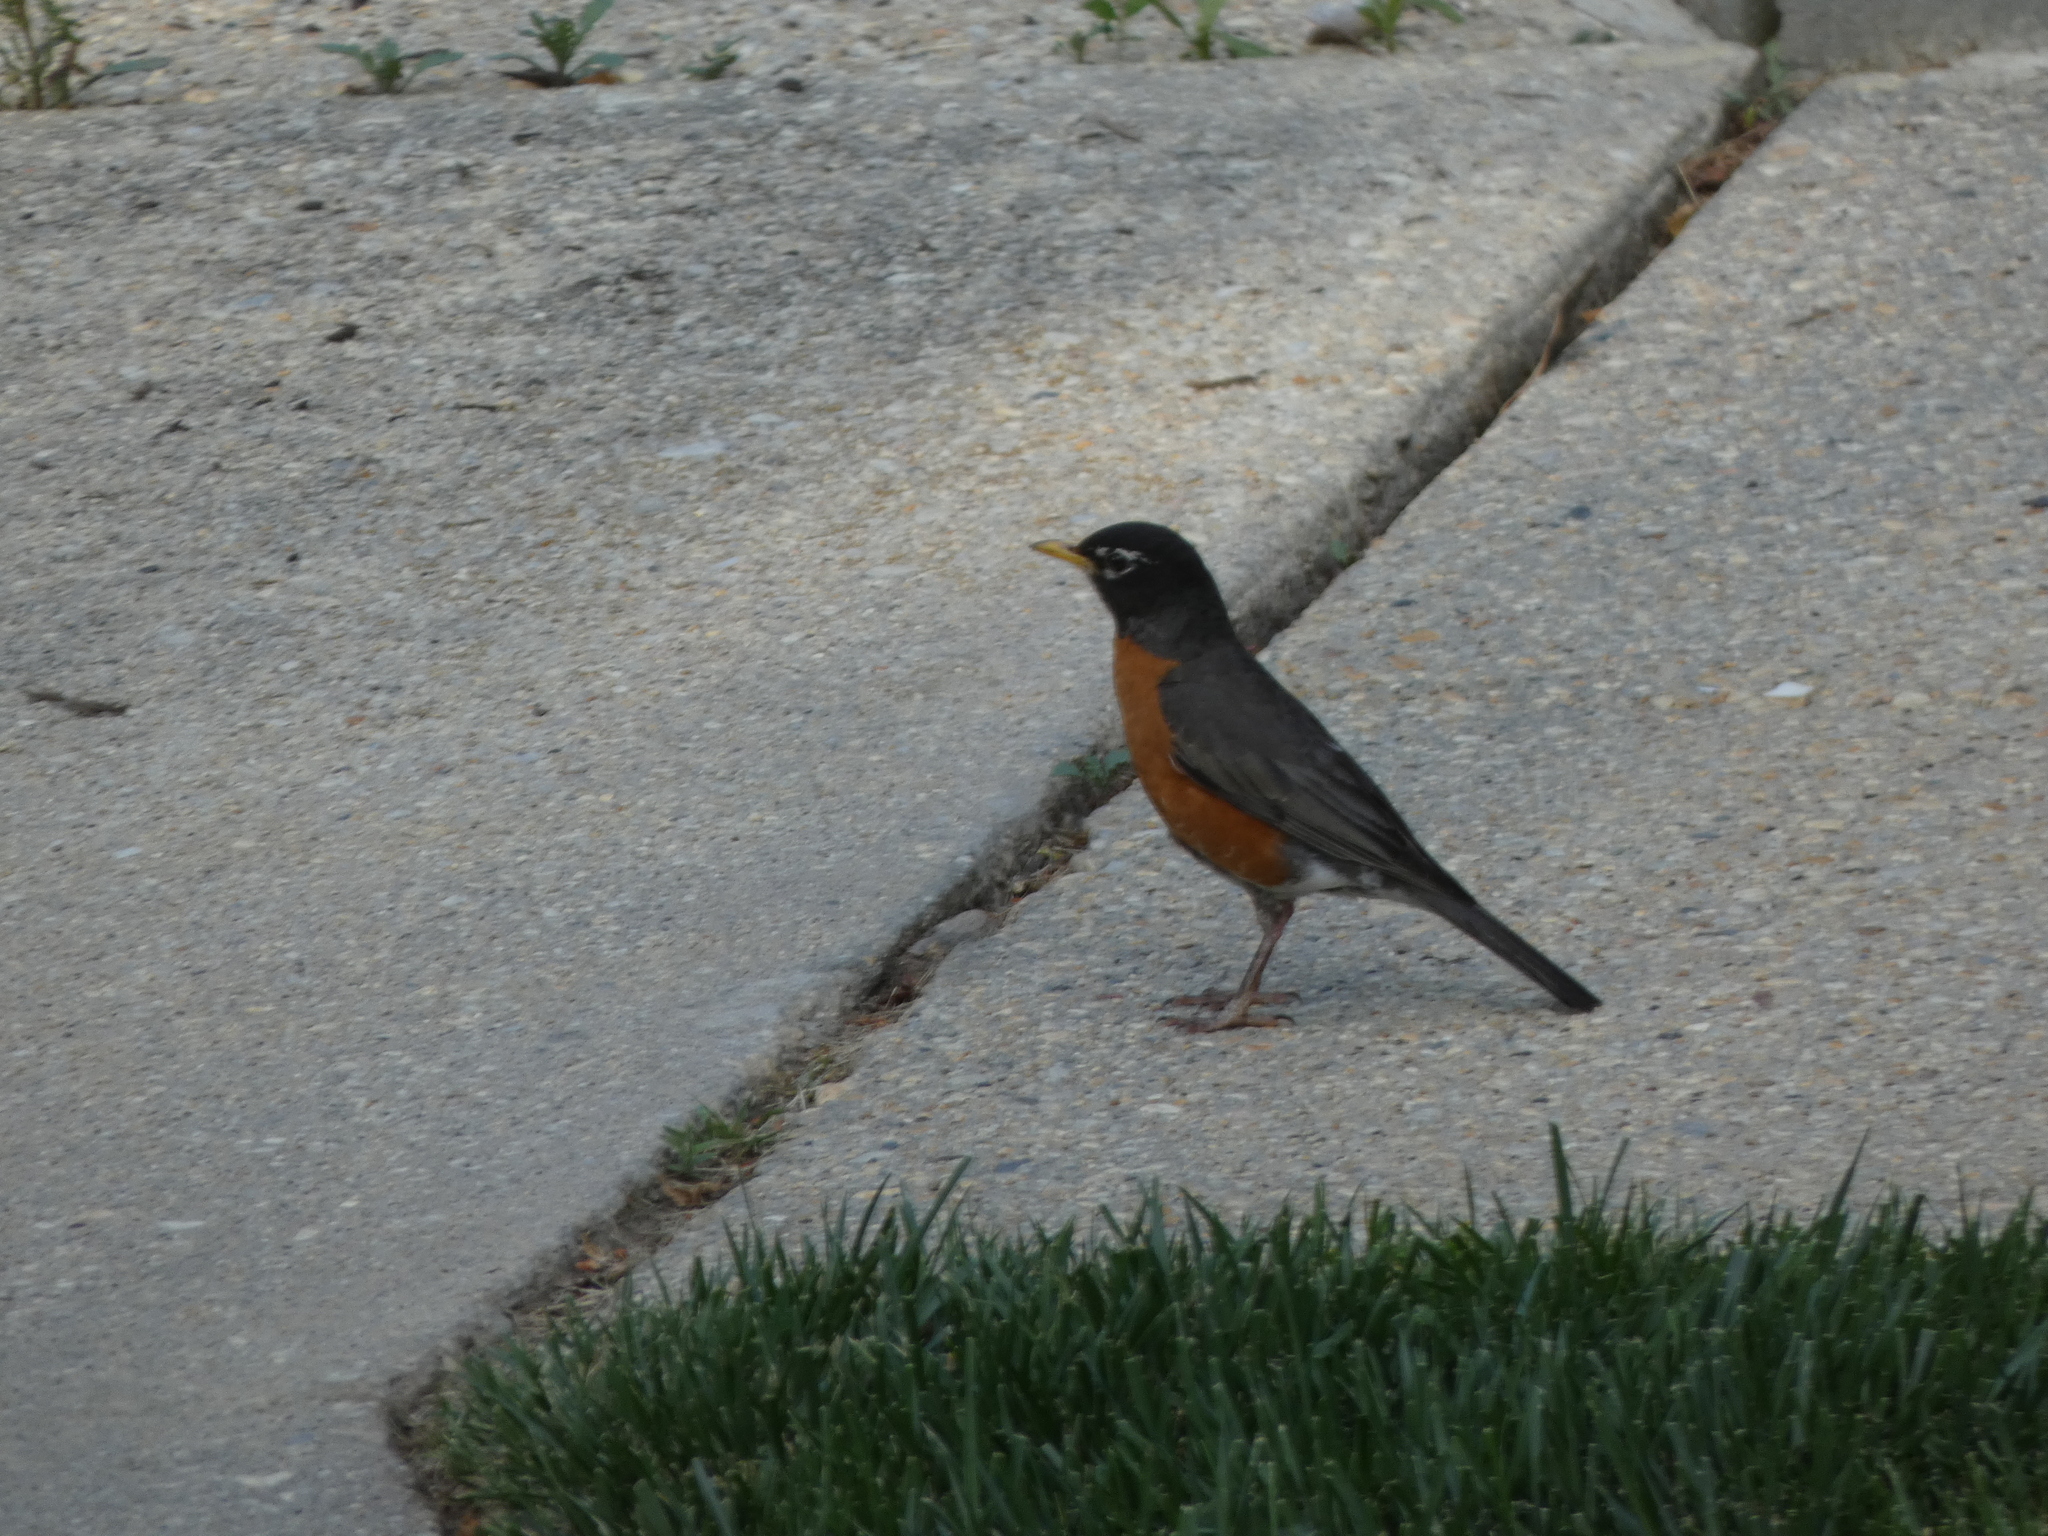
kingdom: Animalia
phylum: Chordata
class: Aves
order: Passeriformes
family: Turdidae
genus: Turdus
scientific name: Turdus migratorius
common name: American robin
